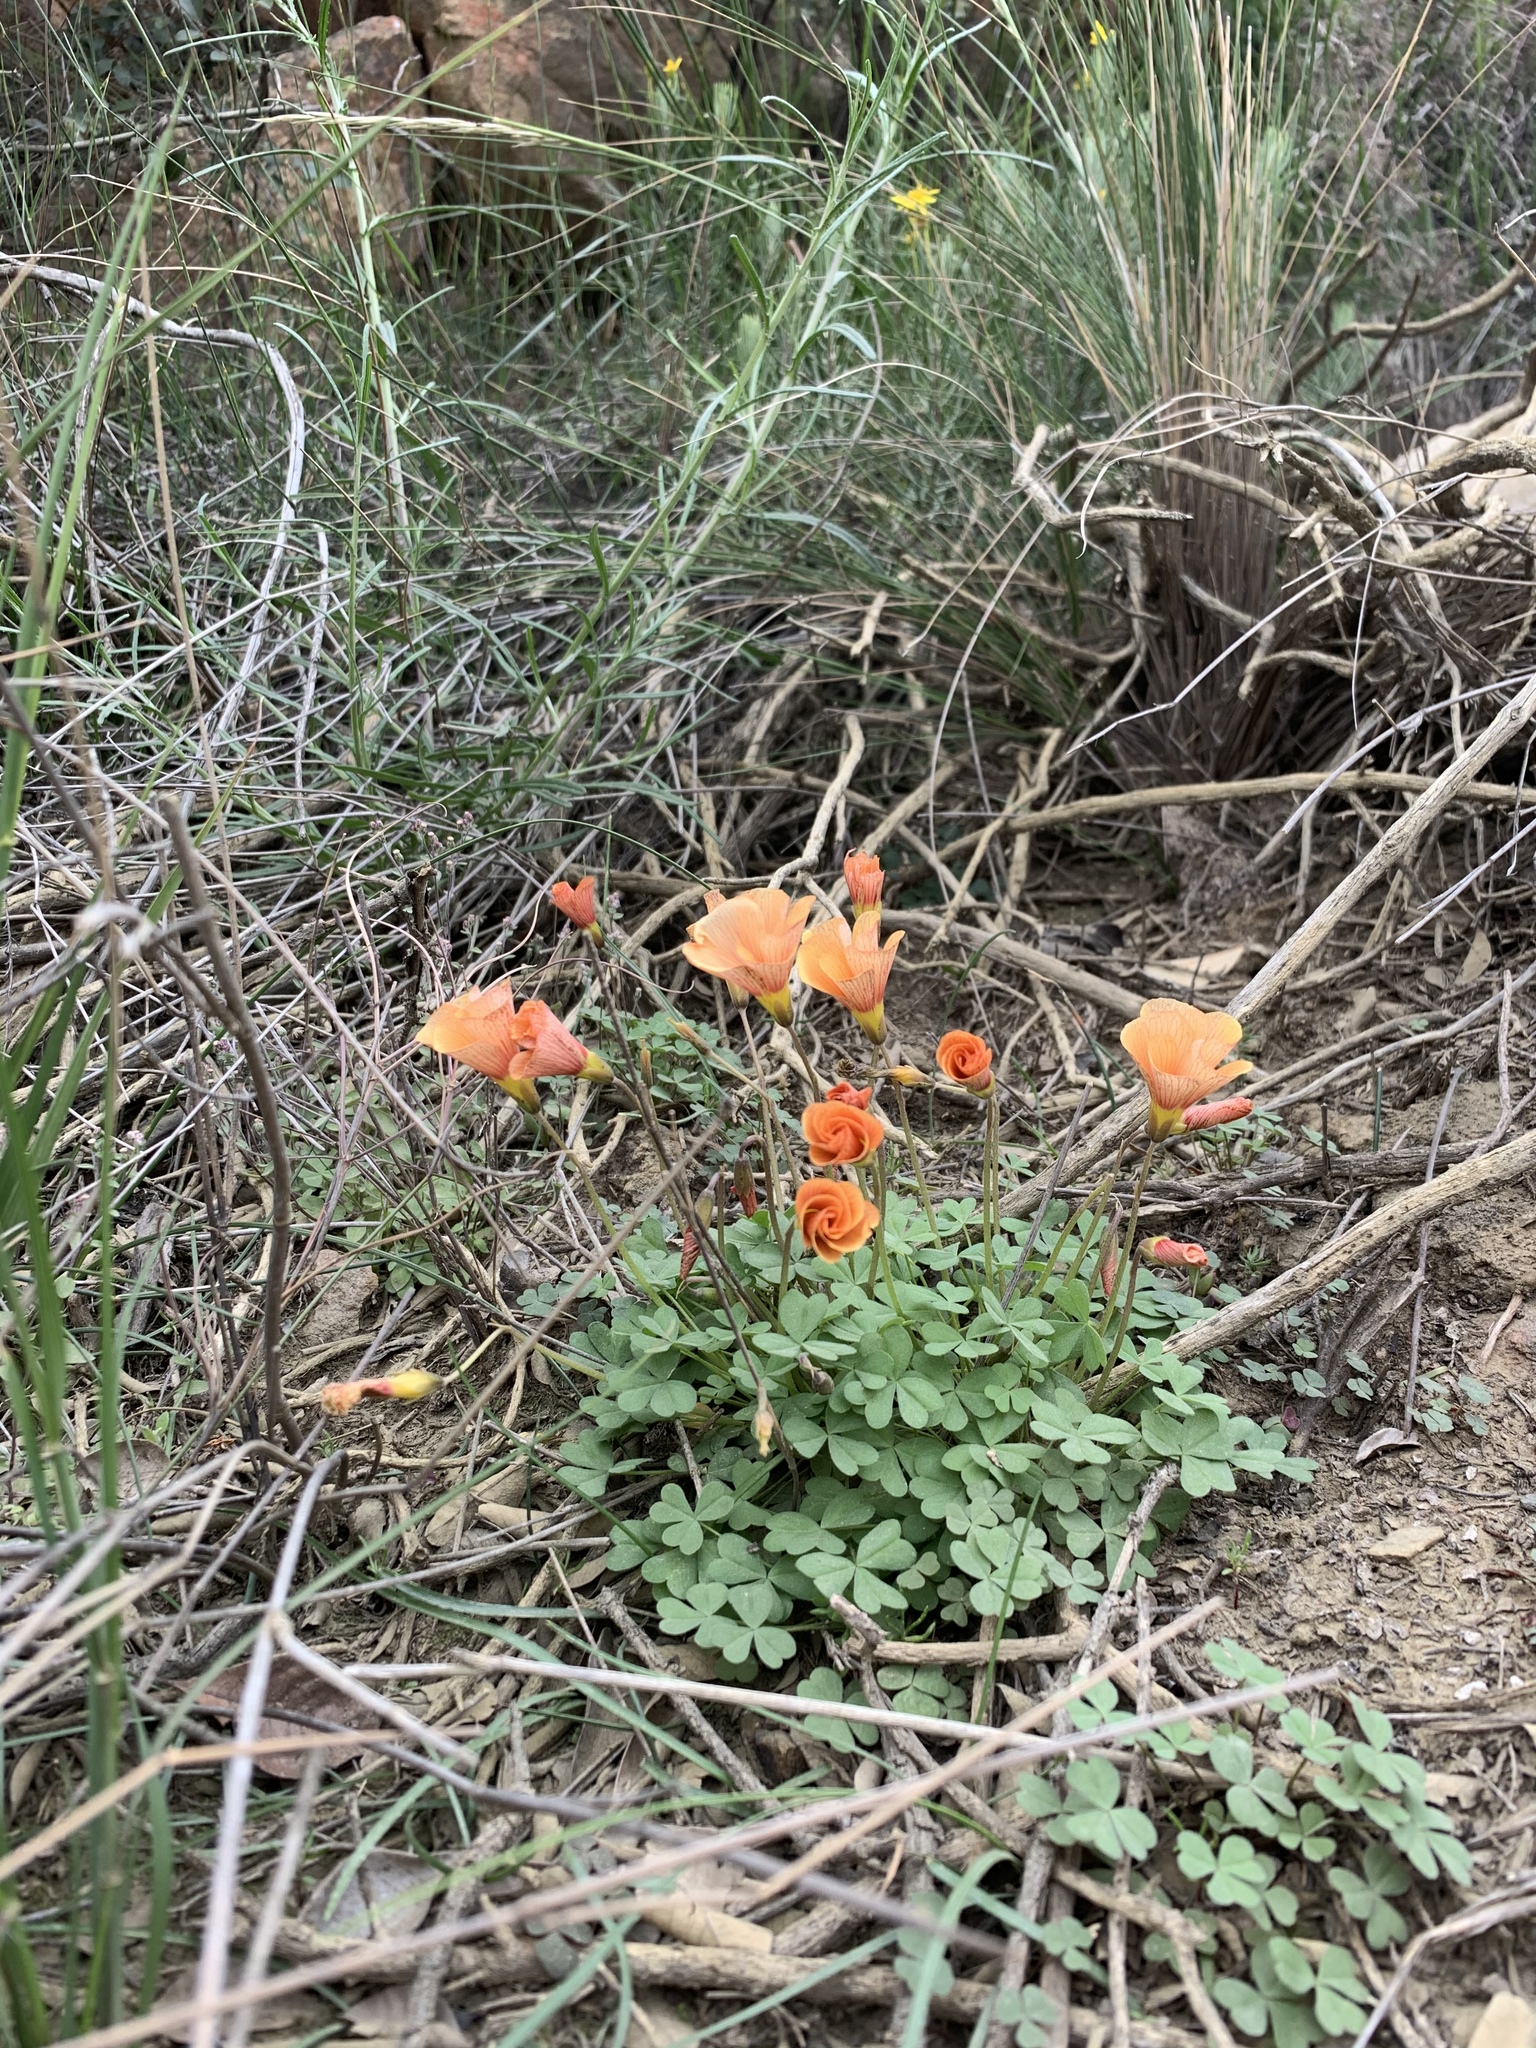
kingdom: Plantae
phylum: Tracheophyta
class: Magnoliopsida
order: Oxalidales
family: Oxalidaceae
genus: Oxalis
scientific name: Oxalis obtusa
